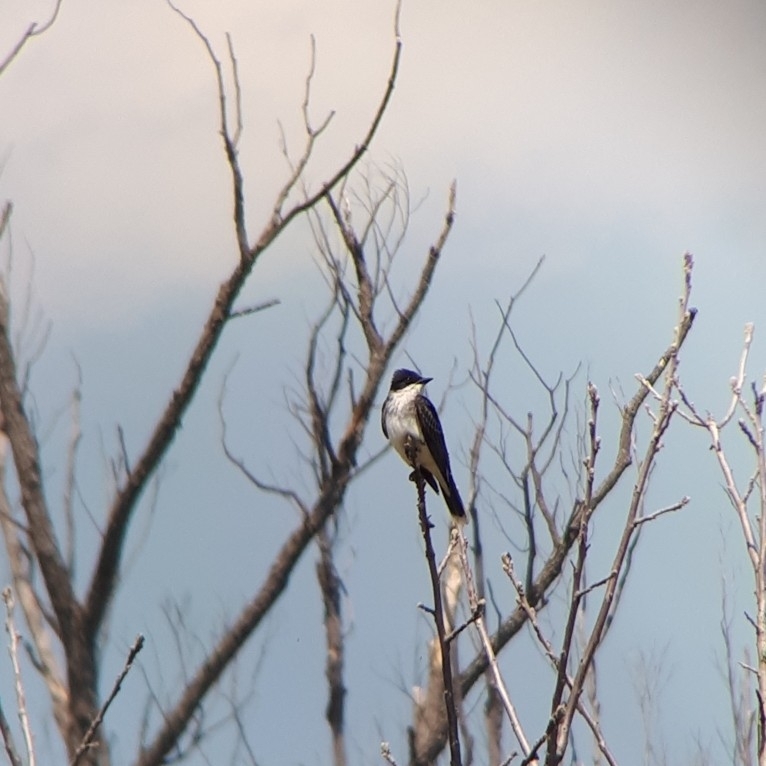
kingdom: Animalia
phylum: Chordata
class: Aves
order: Passeriformes
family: Tyrannidae
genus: Tyrannus
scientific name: Tyrannus tyrannus
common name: Eastern kingbird
